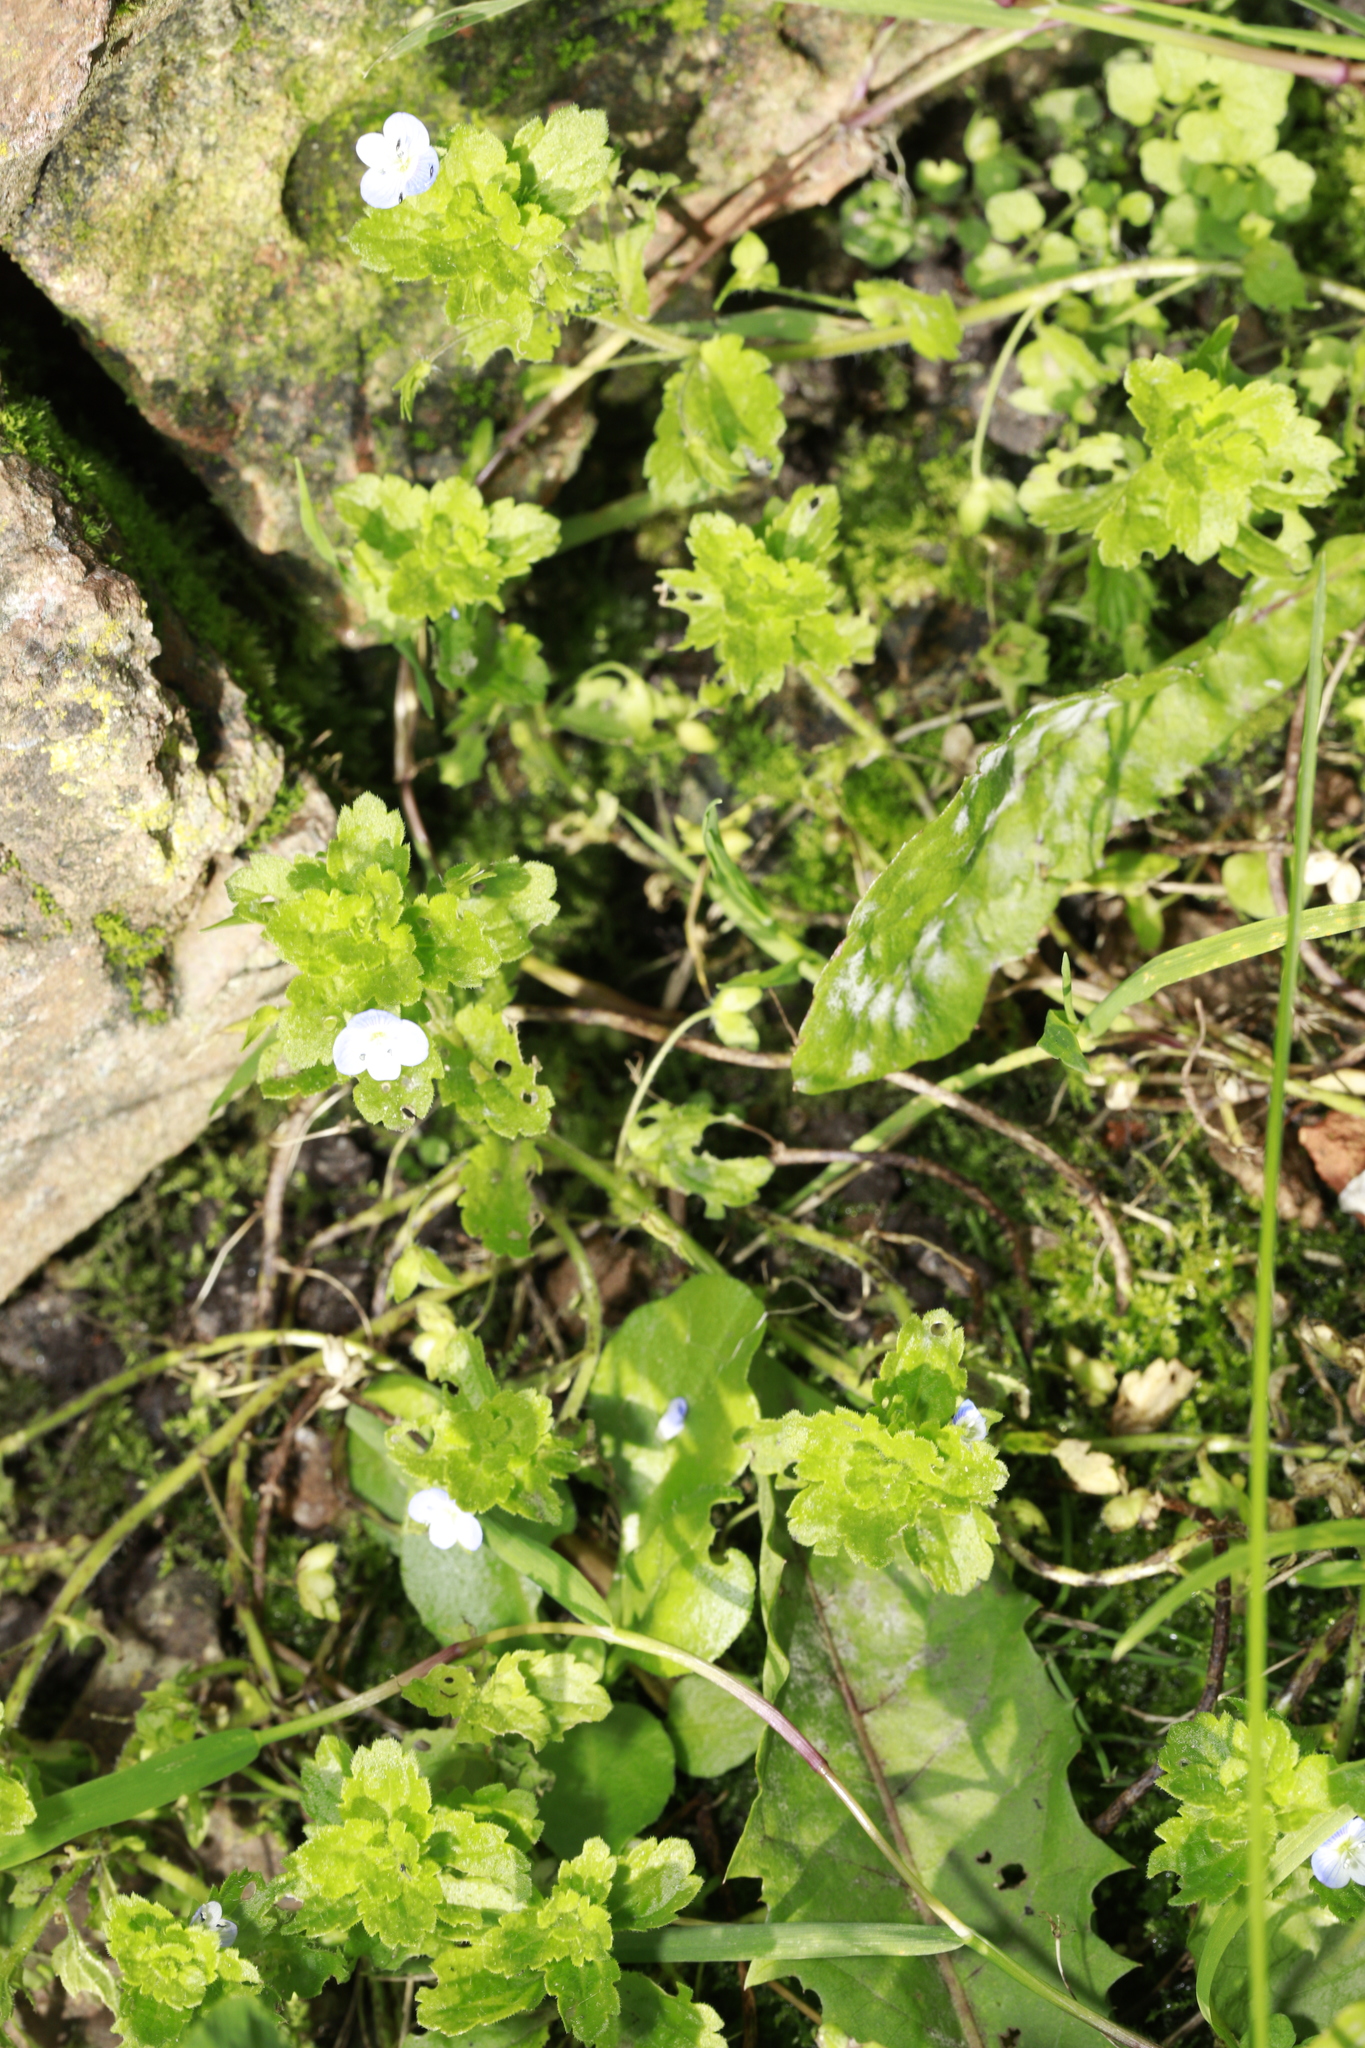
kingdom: Plantae
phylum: Tracheophyta
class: Magnoliopsida
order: Lamiales
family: Plantaginaceae
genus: Veronica
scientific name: Veronica persica
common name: Common field-speedwell
